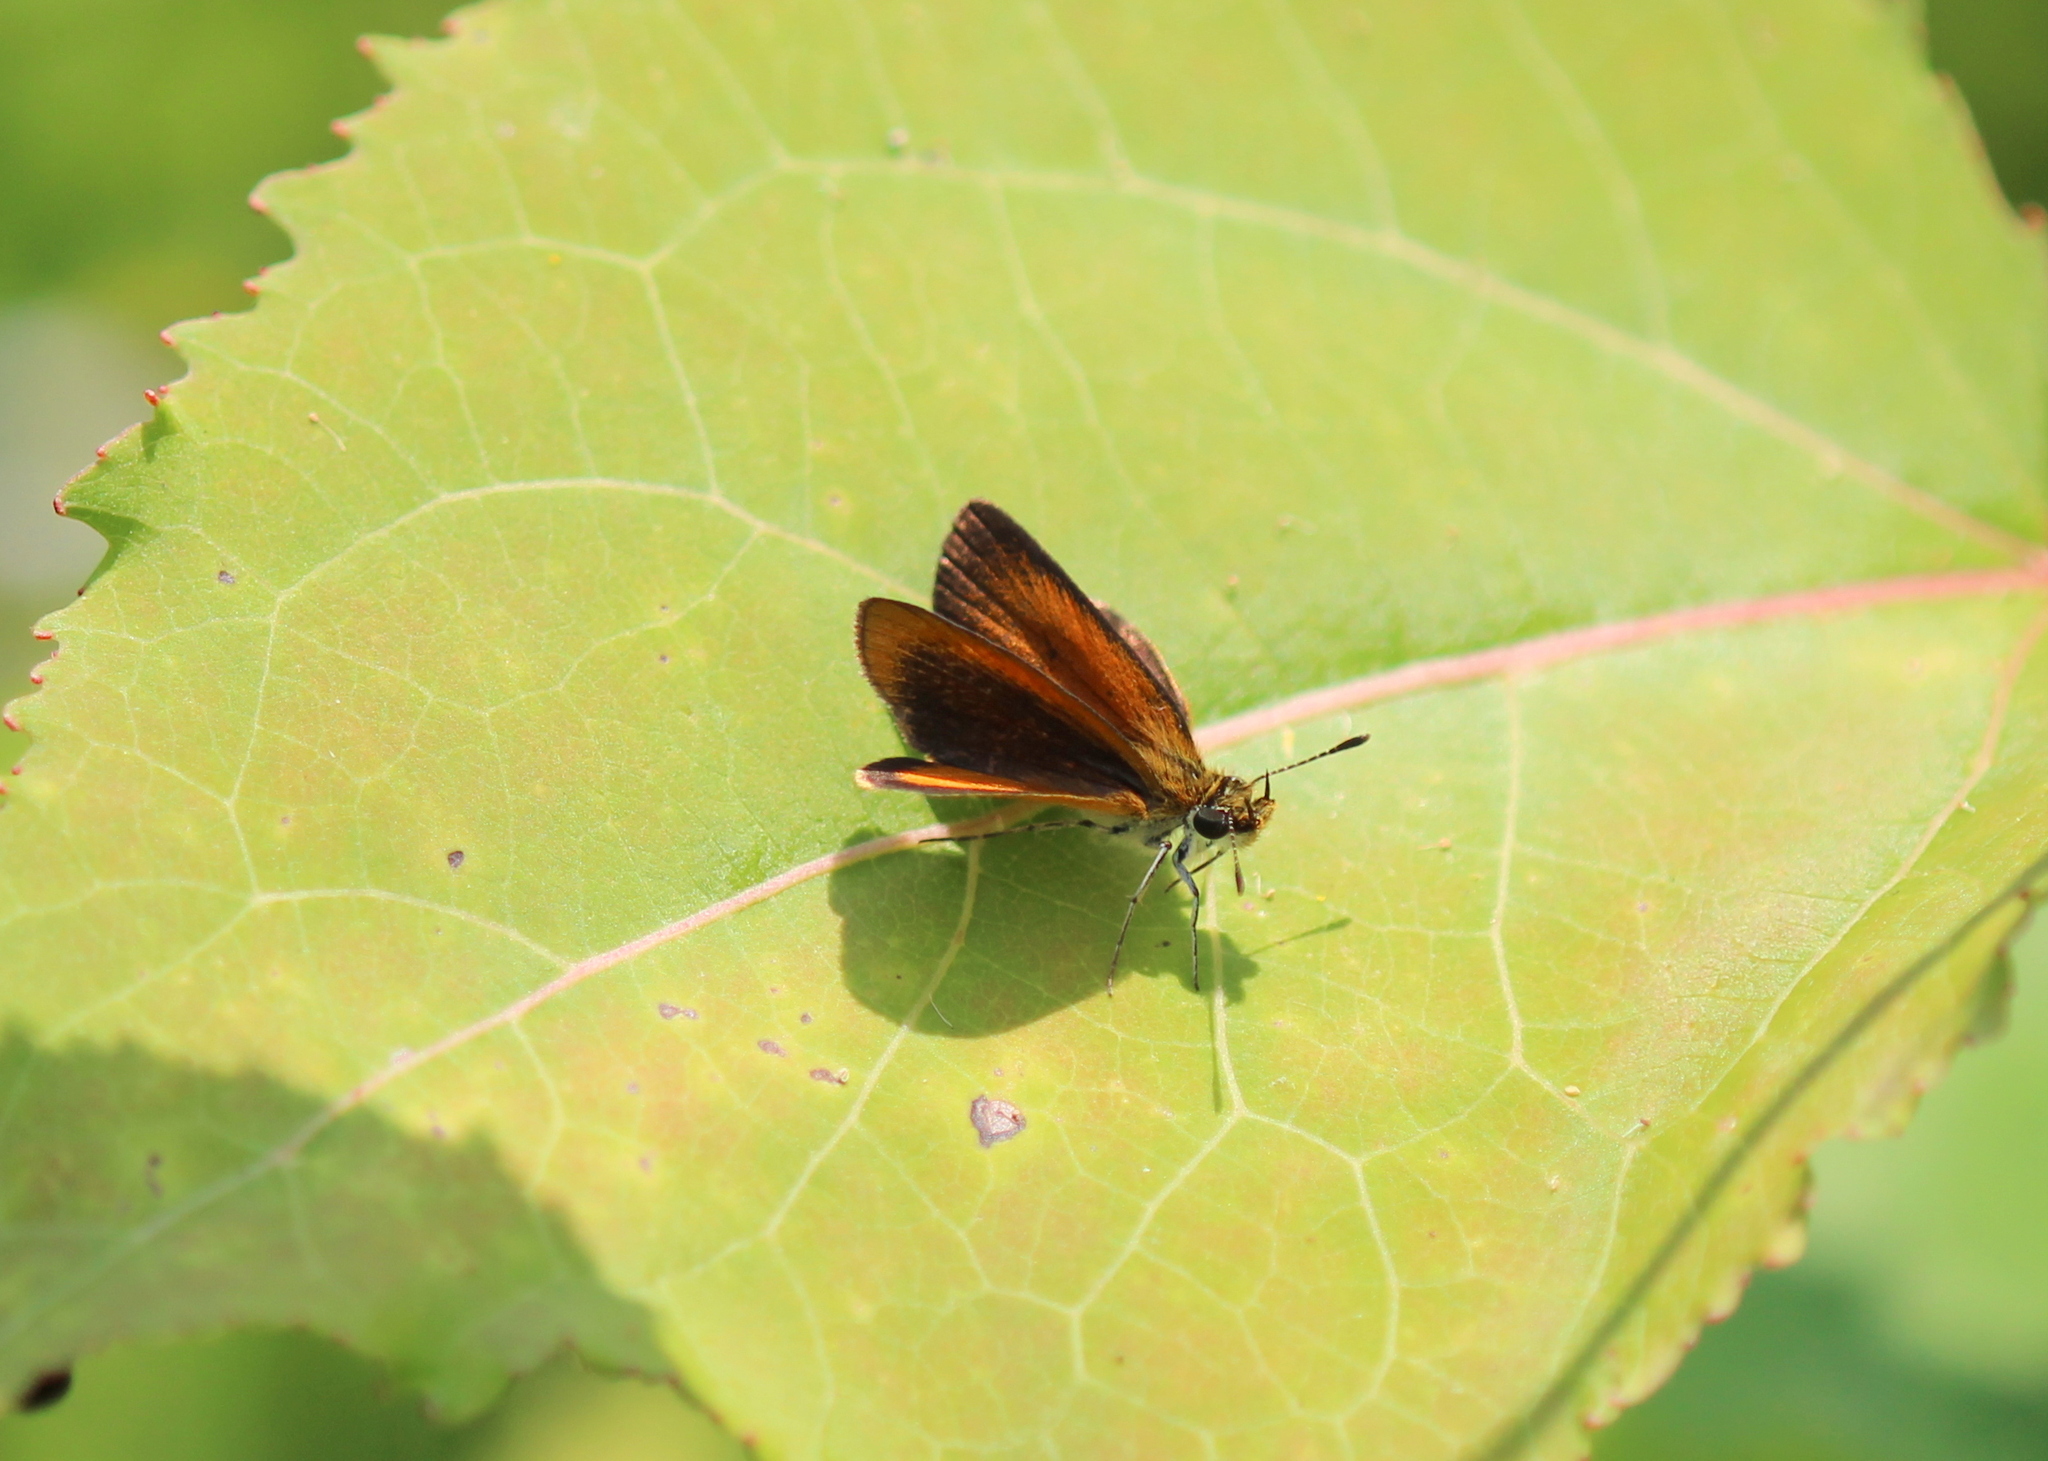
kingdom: Animalia
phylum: Arthropoda
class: Insecta
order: Lepidoptera
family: Hesperiidae
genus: Ancyloxypha
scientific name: Ancyloxypha numitor
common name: Least skipper
